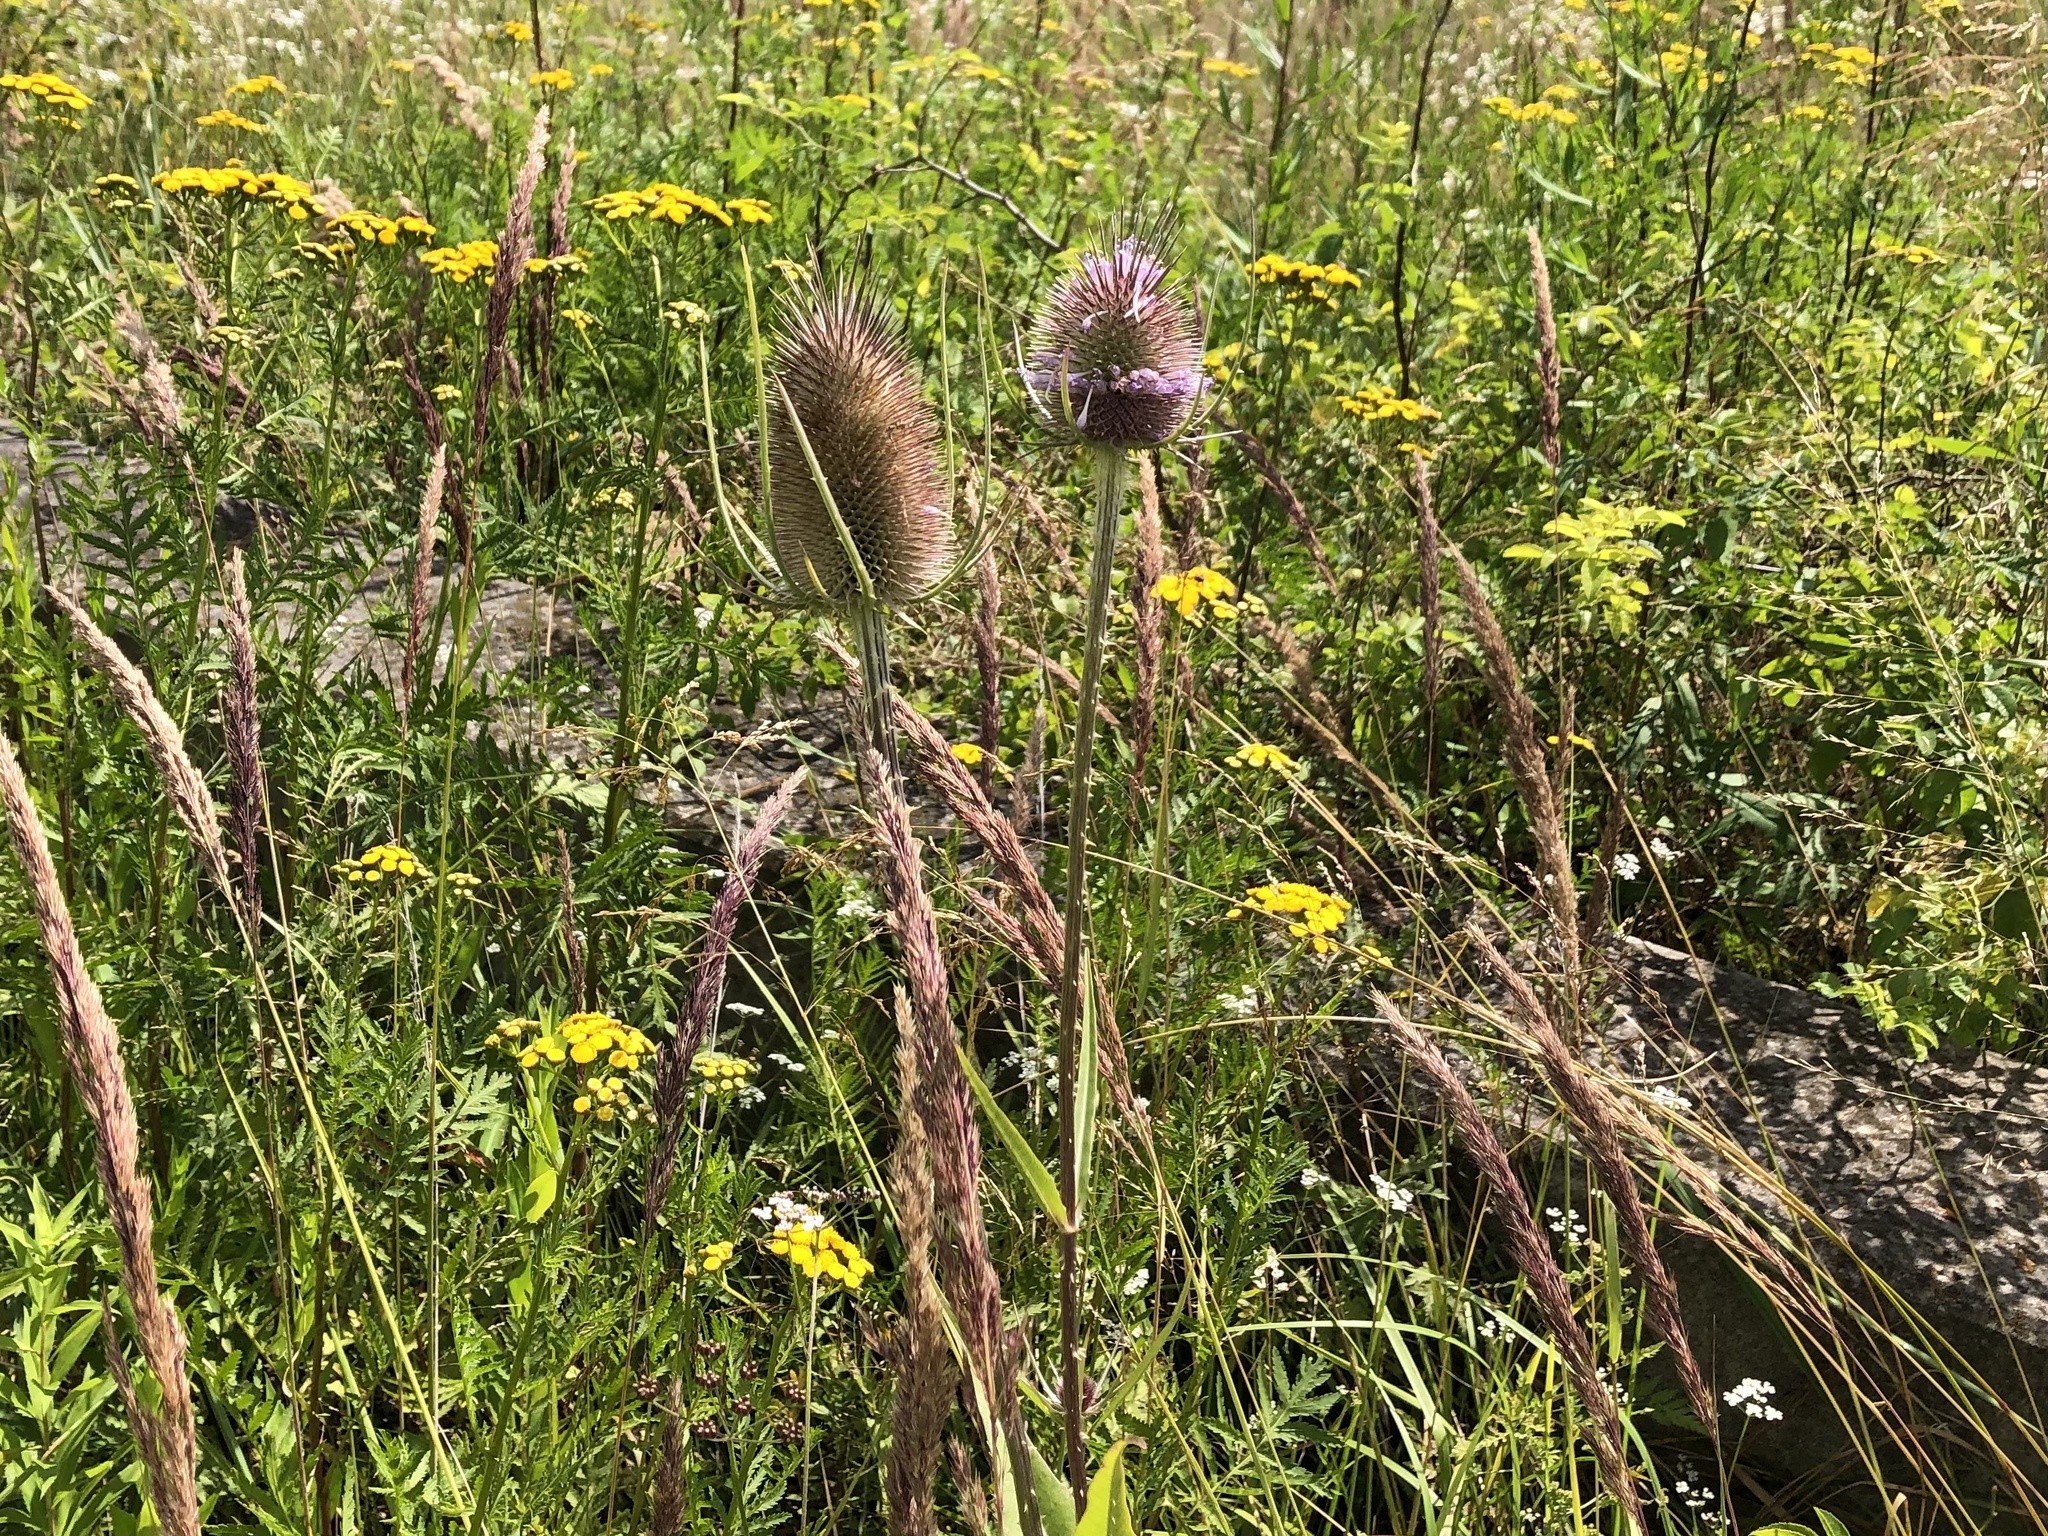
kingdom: Plantae
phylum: Tracheophyta
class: Magnoliopsida
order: Dipsacales
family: Caprifoliaceae
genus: Dipsacus
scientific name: Dipsacus fullonum
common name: Teasel
